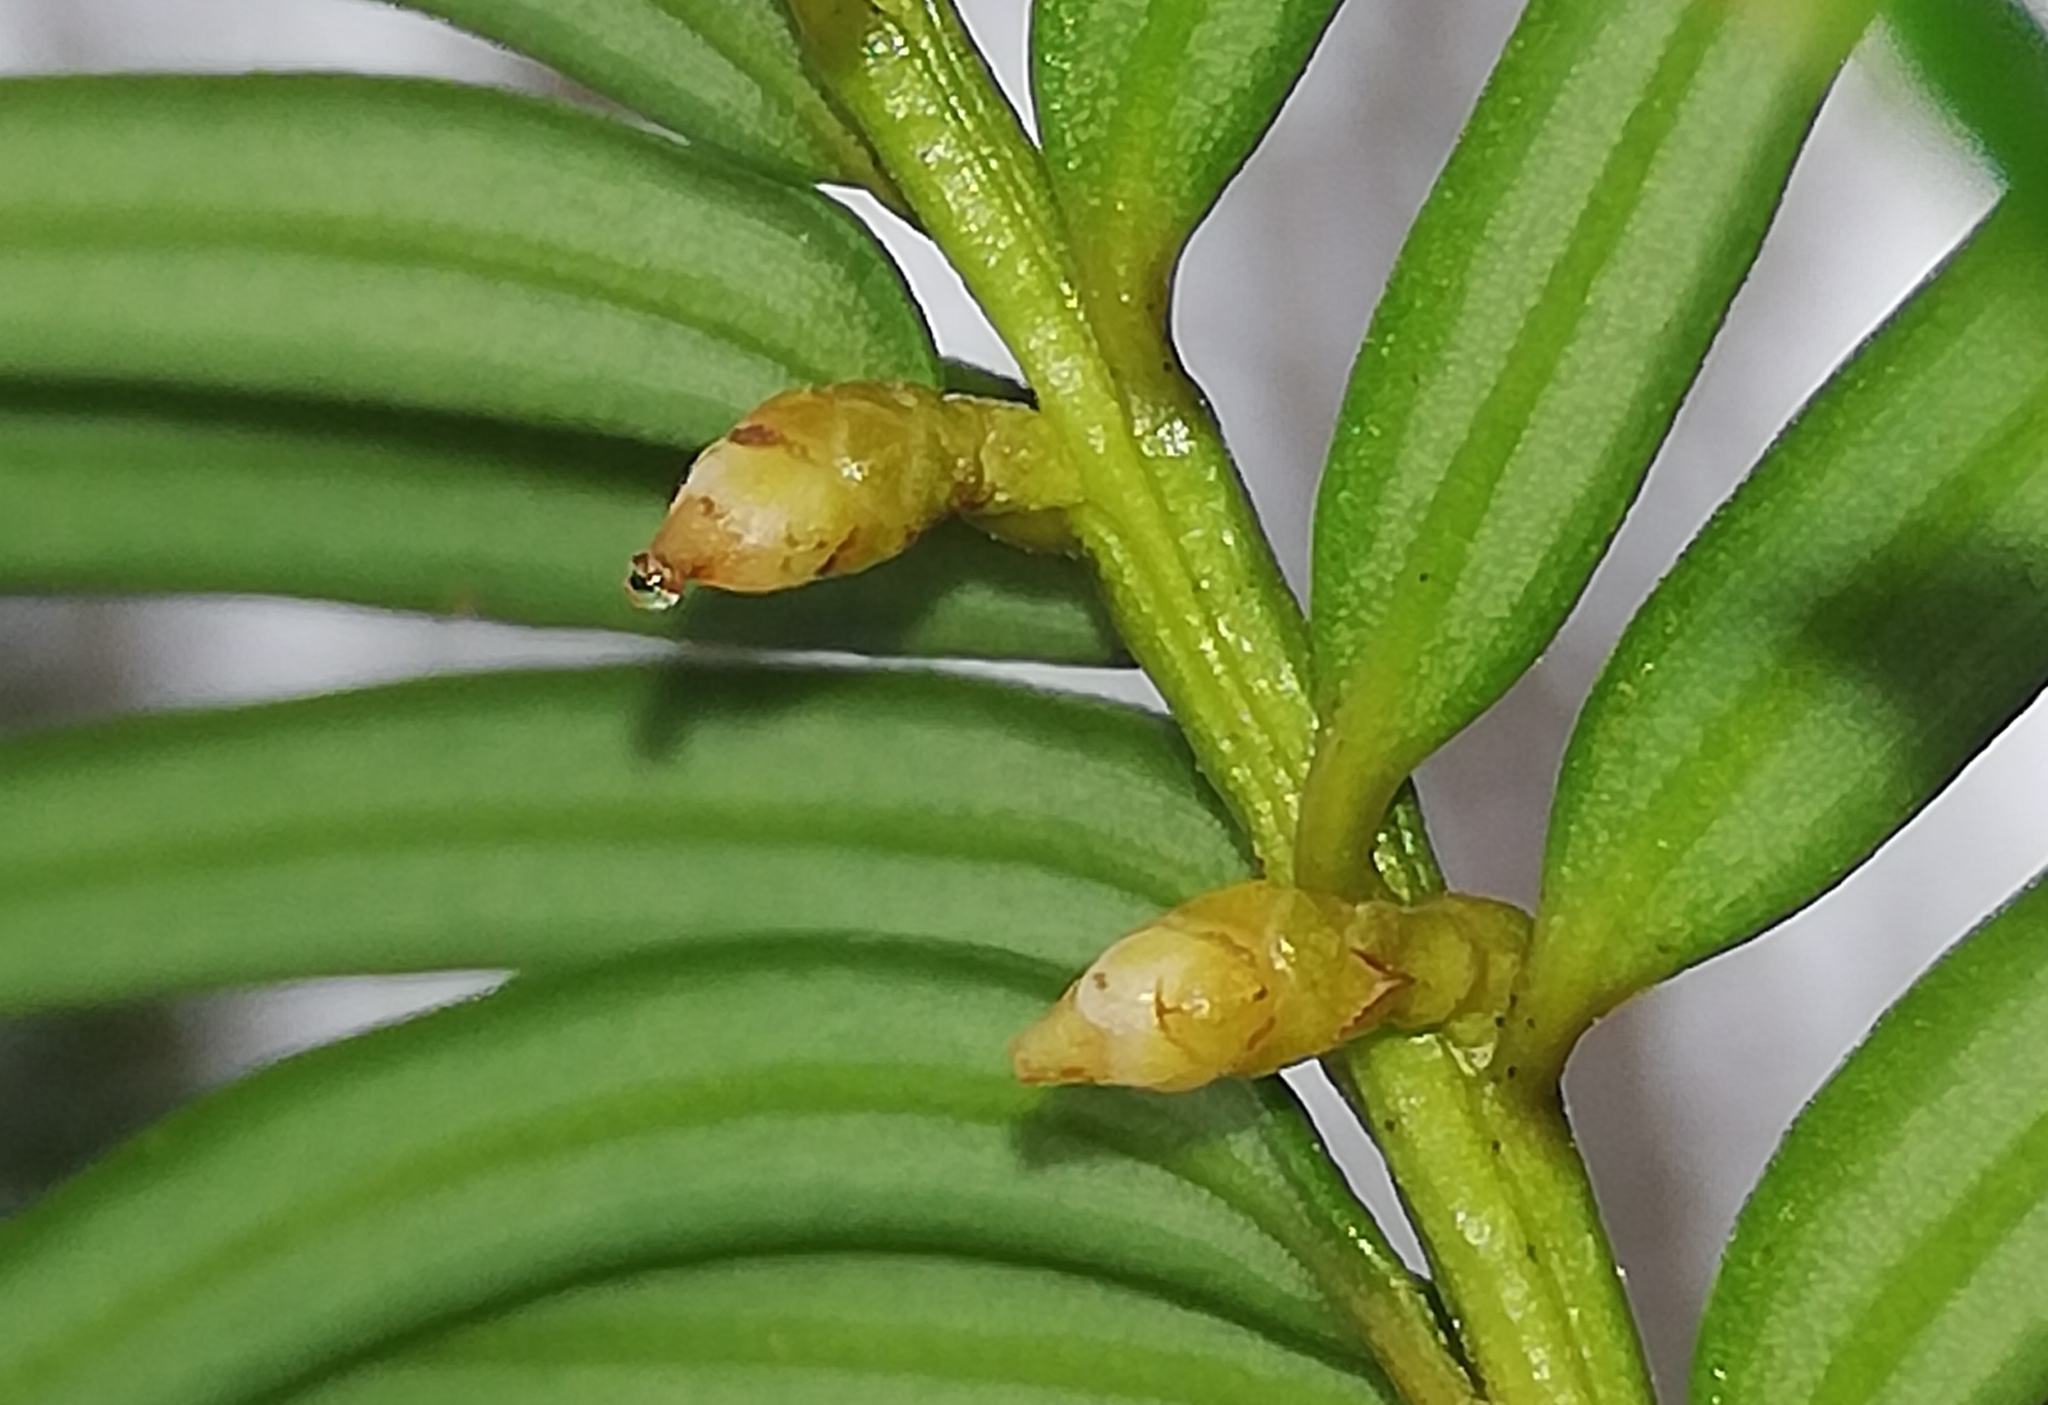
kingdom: Plantae
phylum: Tracheophyta
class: Pinopsida
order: Pinales
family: Taxaceae
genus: Taxus
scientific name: Taxus baccata
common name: Yew
